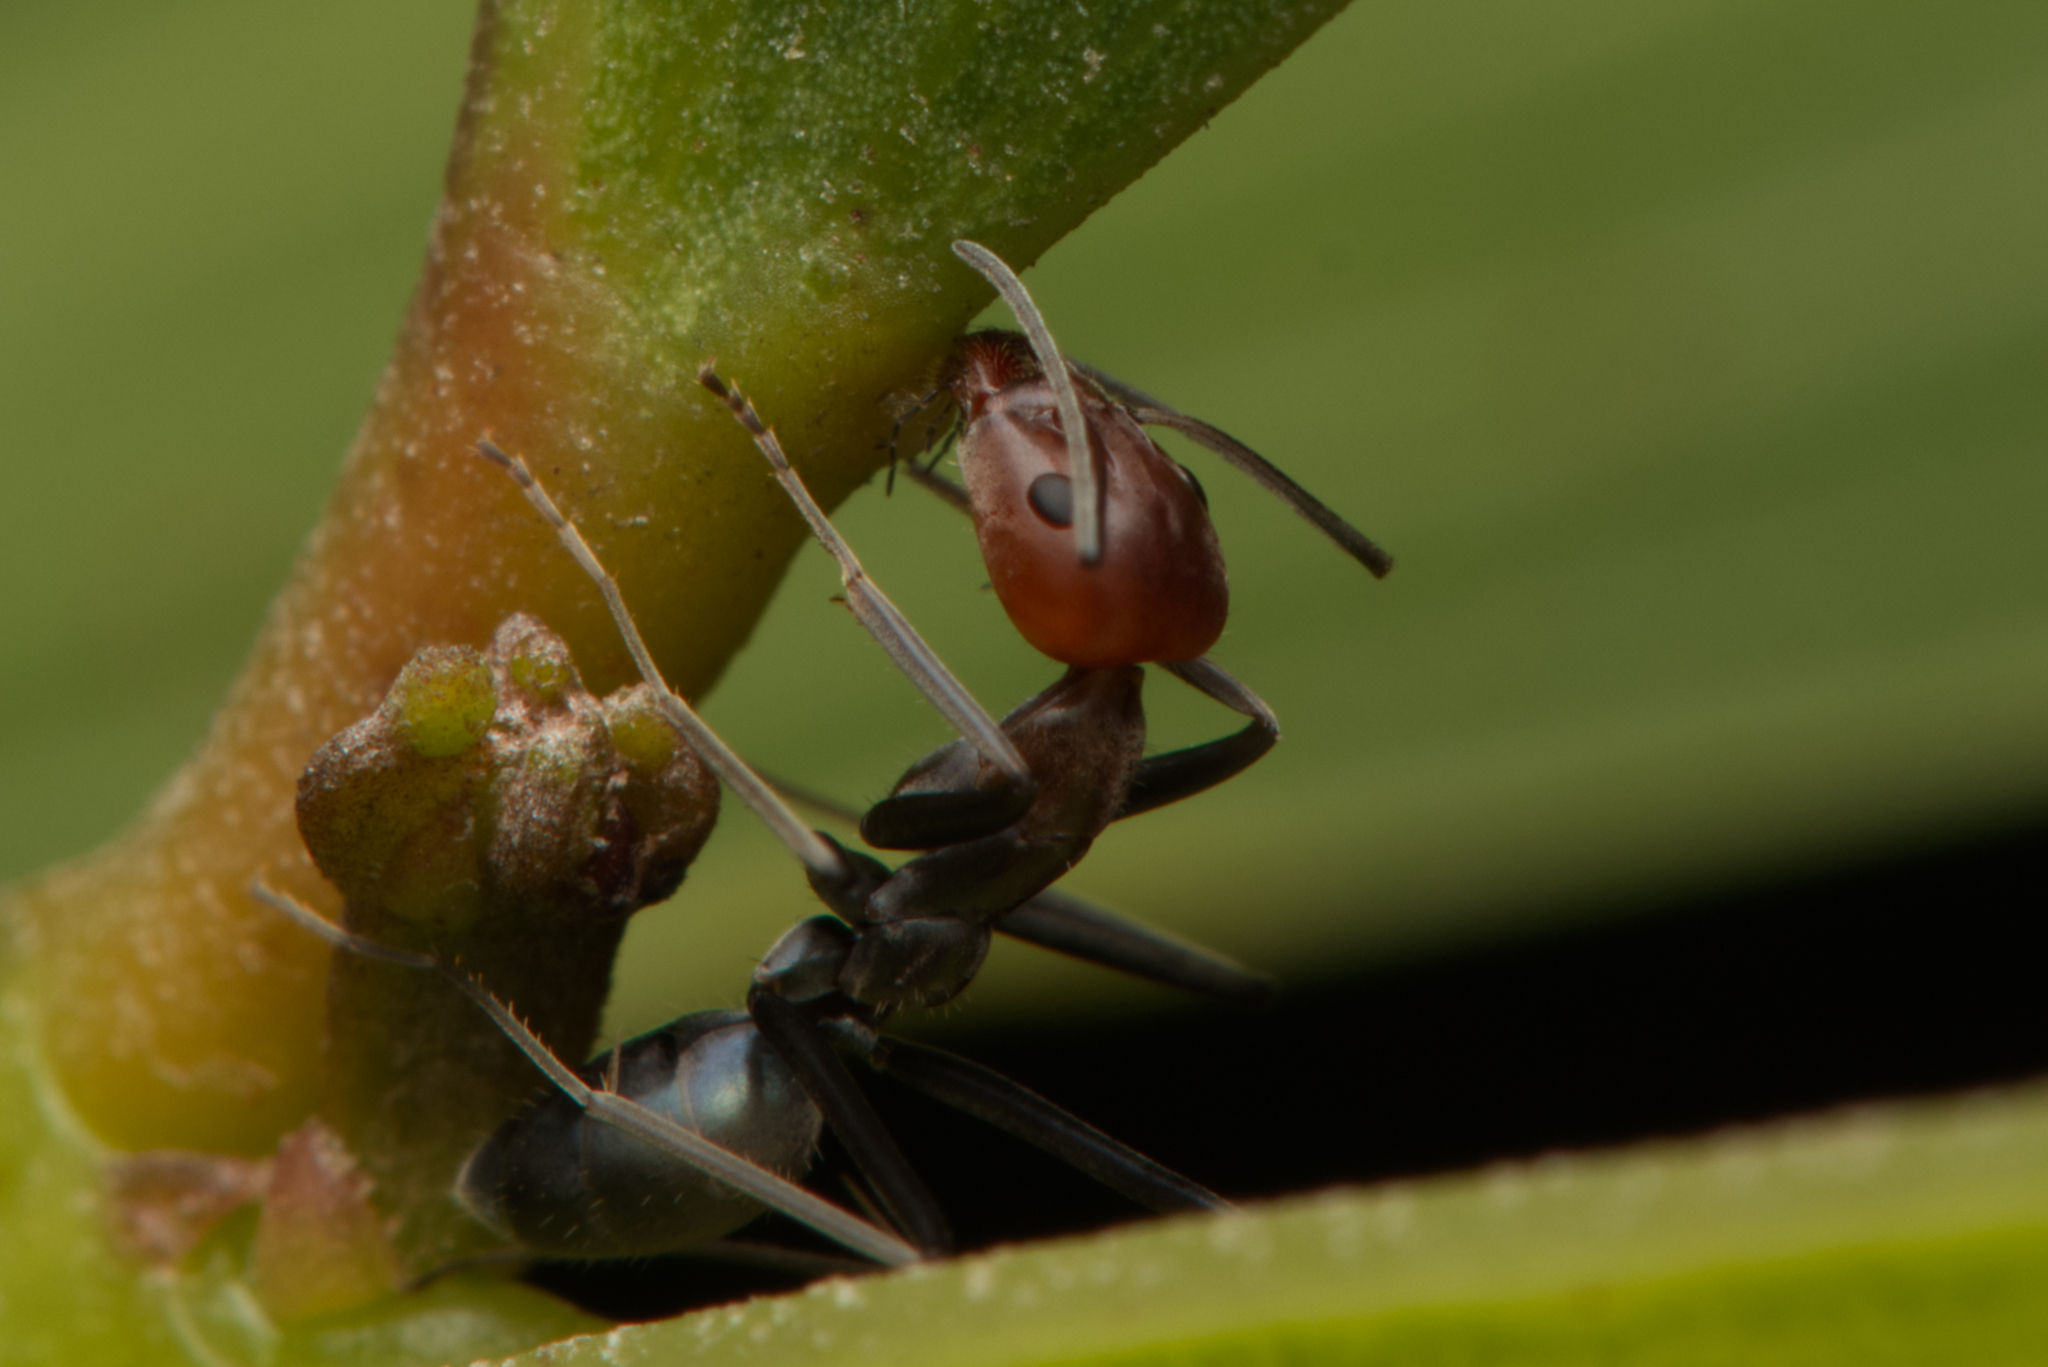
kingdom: Animalia
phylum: Arthropoda
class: Insecta
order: Hymenoptera
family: Formicidae
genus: Iridomyrmex
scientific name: Iridomyrmex
